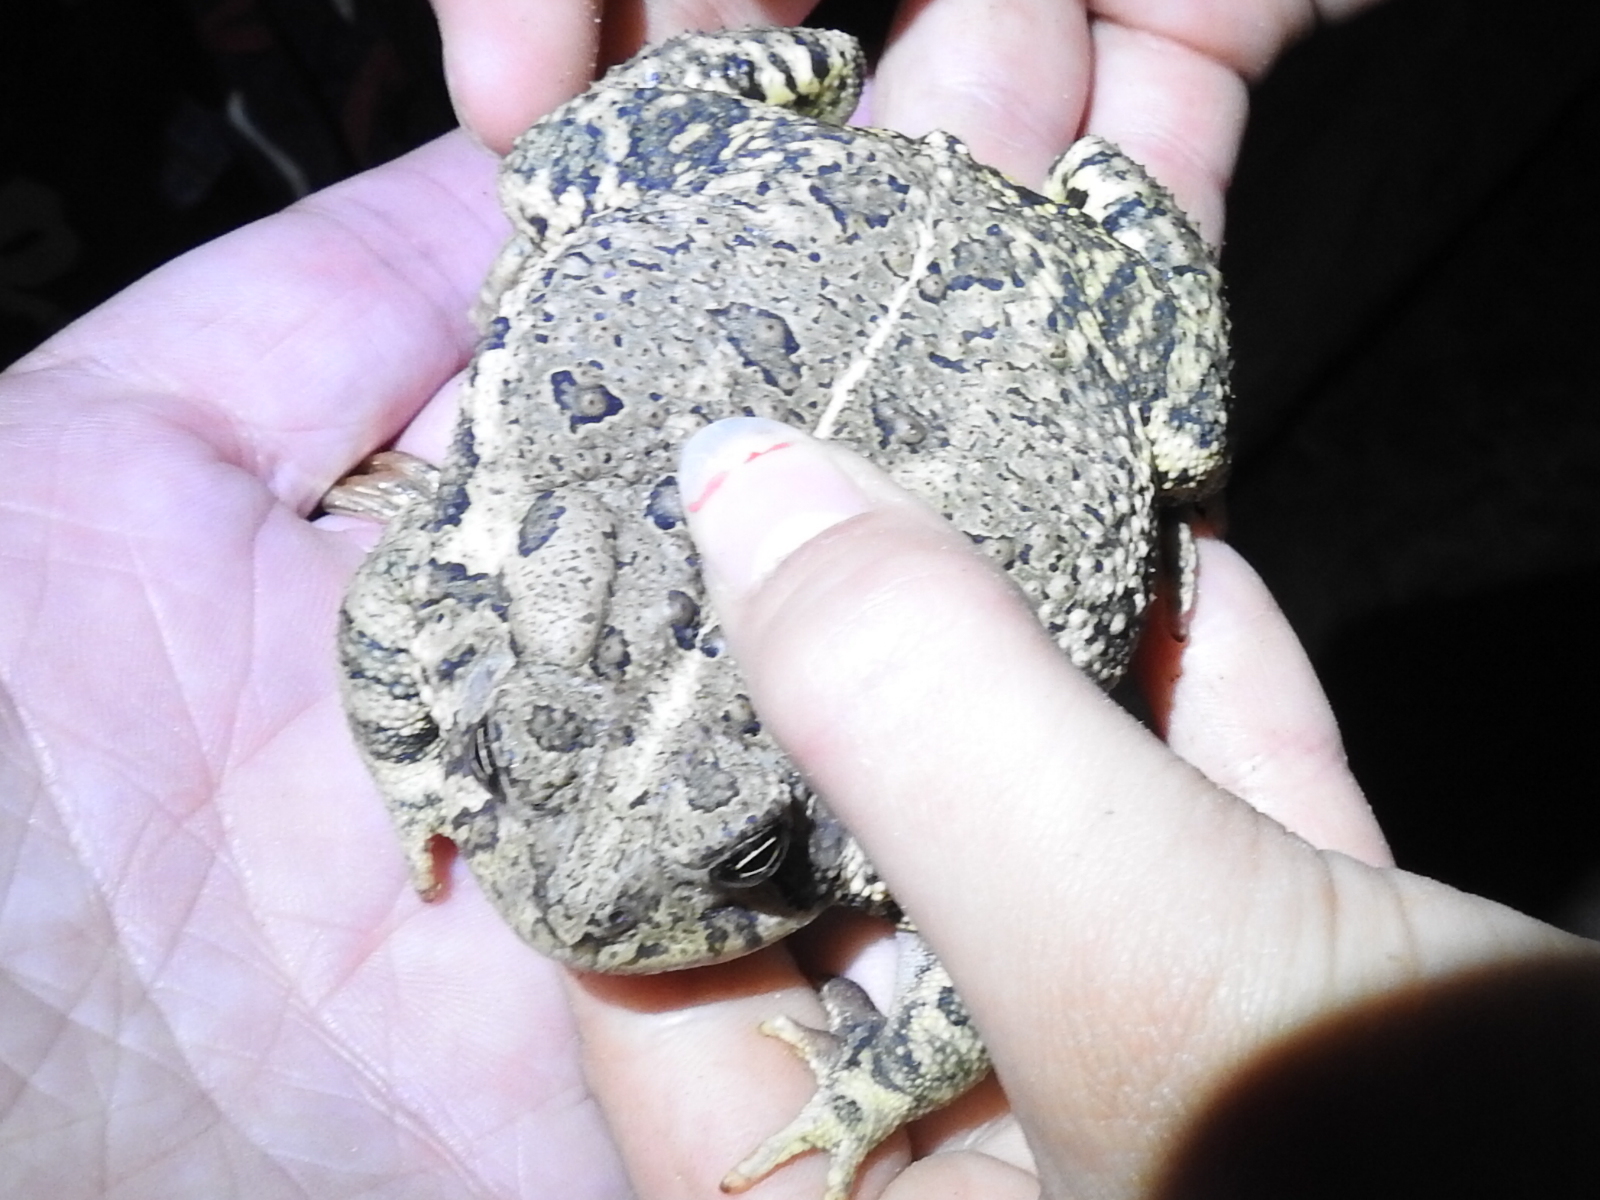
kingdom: Animalia
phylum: Chordata
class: Amphibia
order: Anura
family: Bufonidae
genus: Anaxyrus
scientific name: Anaxyrus woodhousii
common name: Woodhouse's toad
